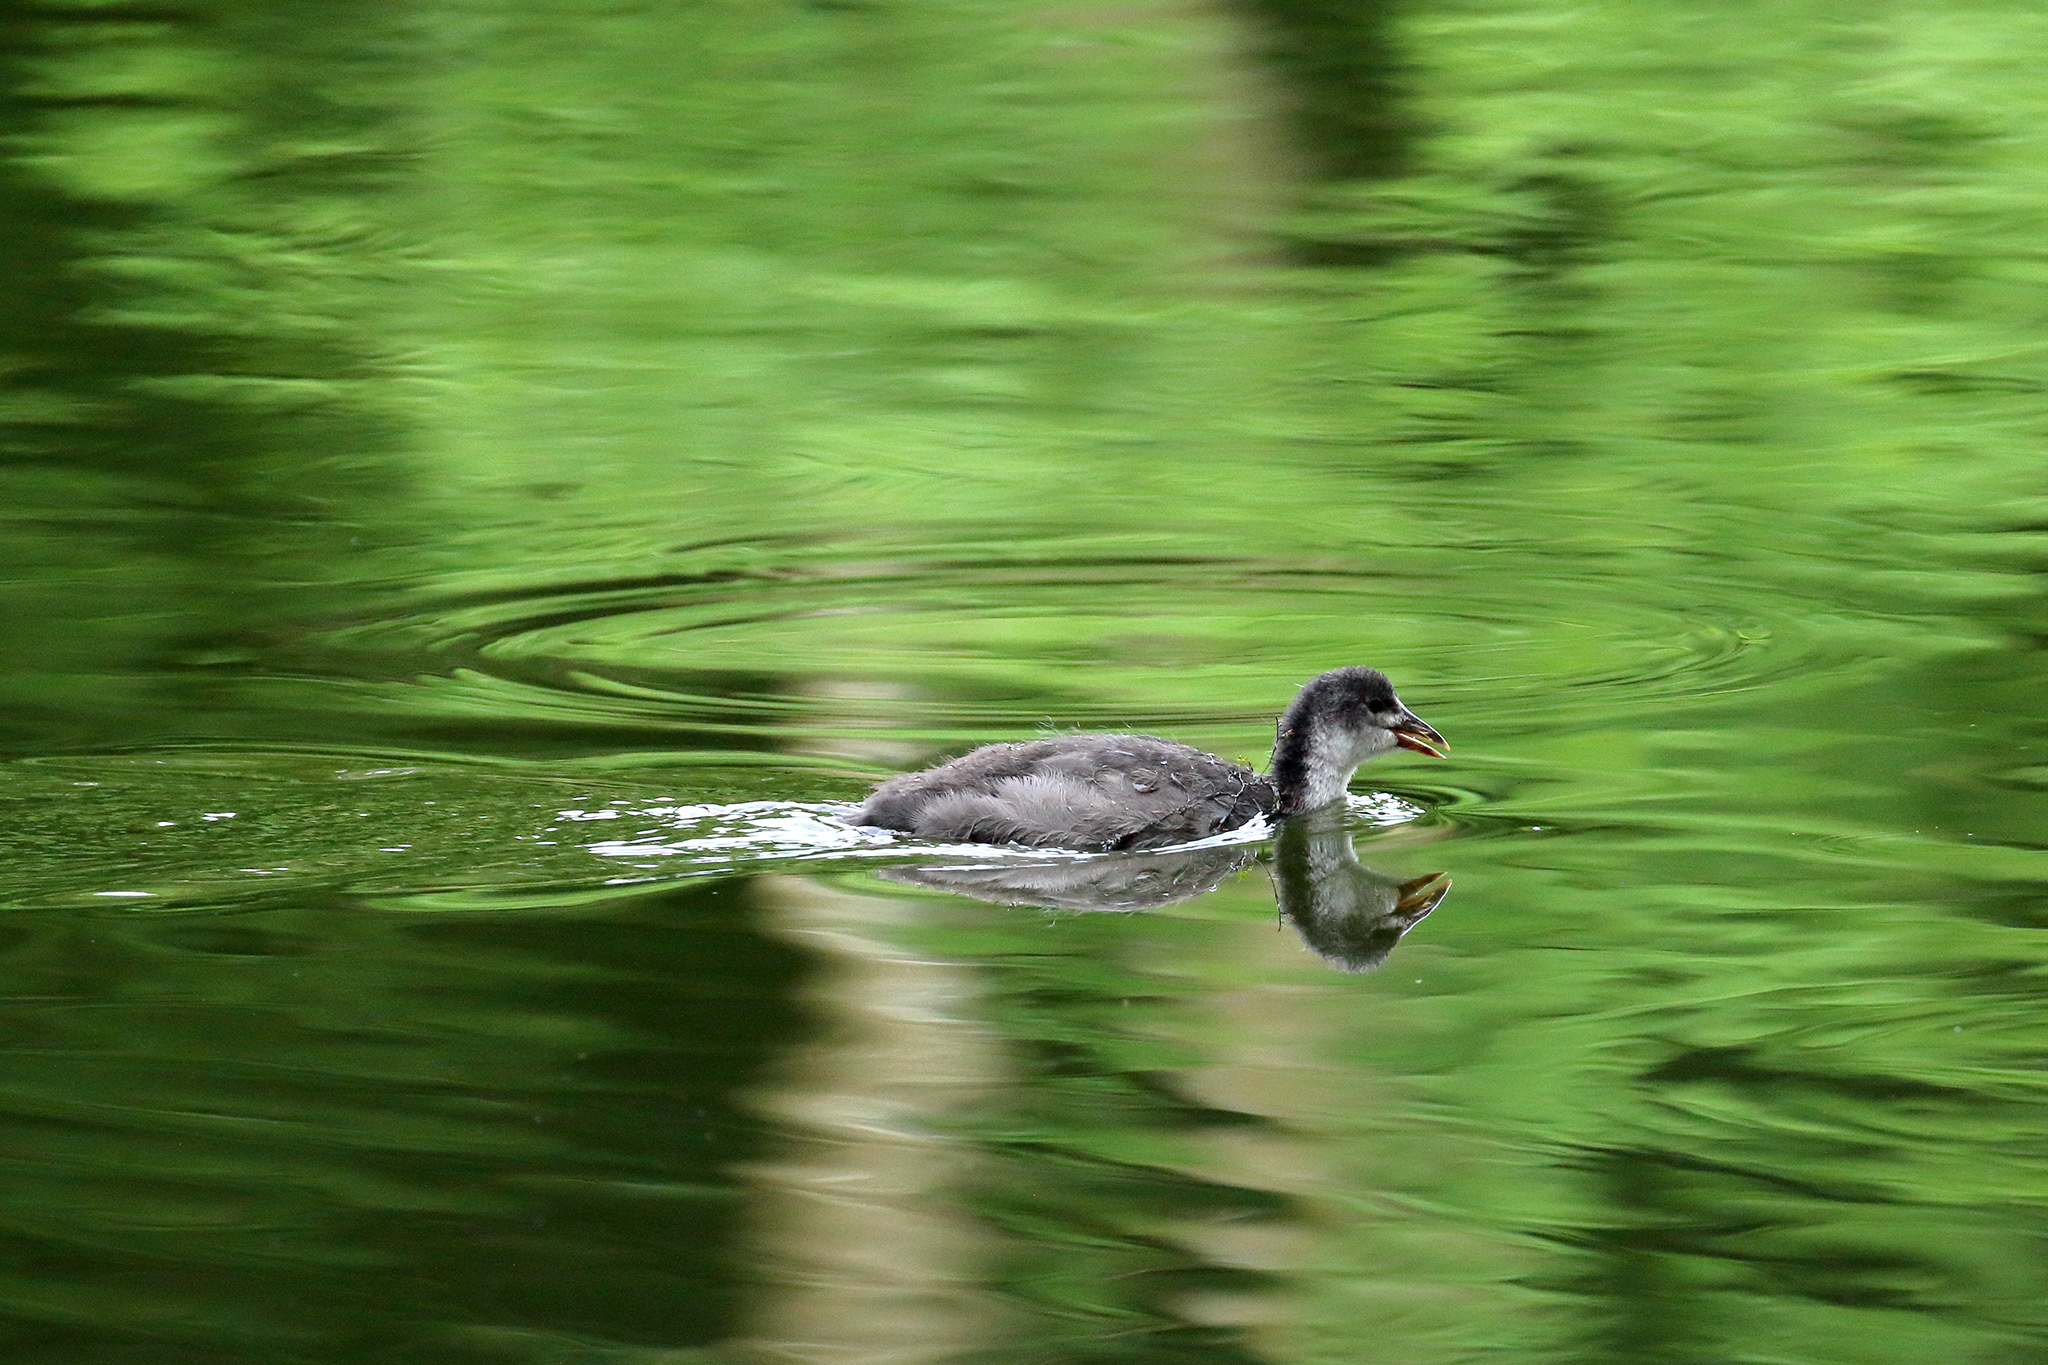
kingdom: Animalia
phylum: Chordata
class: Aves
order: Gruiformes
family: Rallidae
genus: Fulica
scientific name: Fulica atra
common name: Eurasian coot
